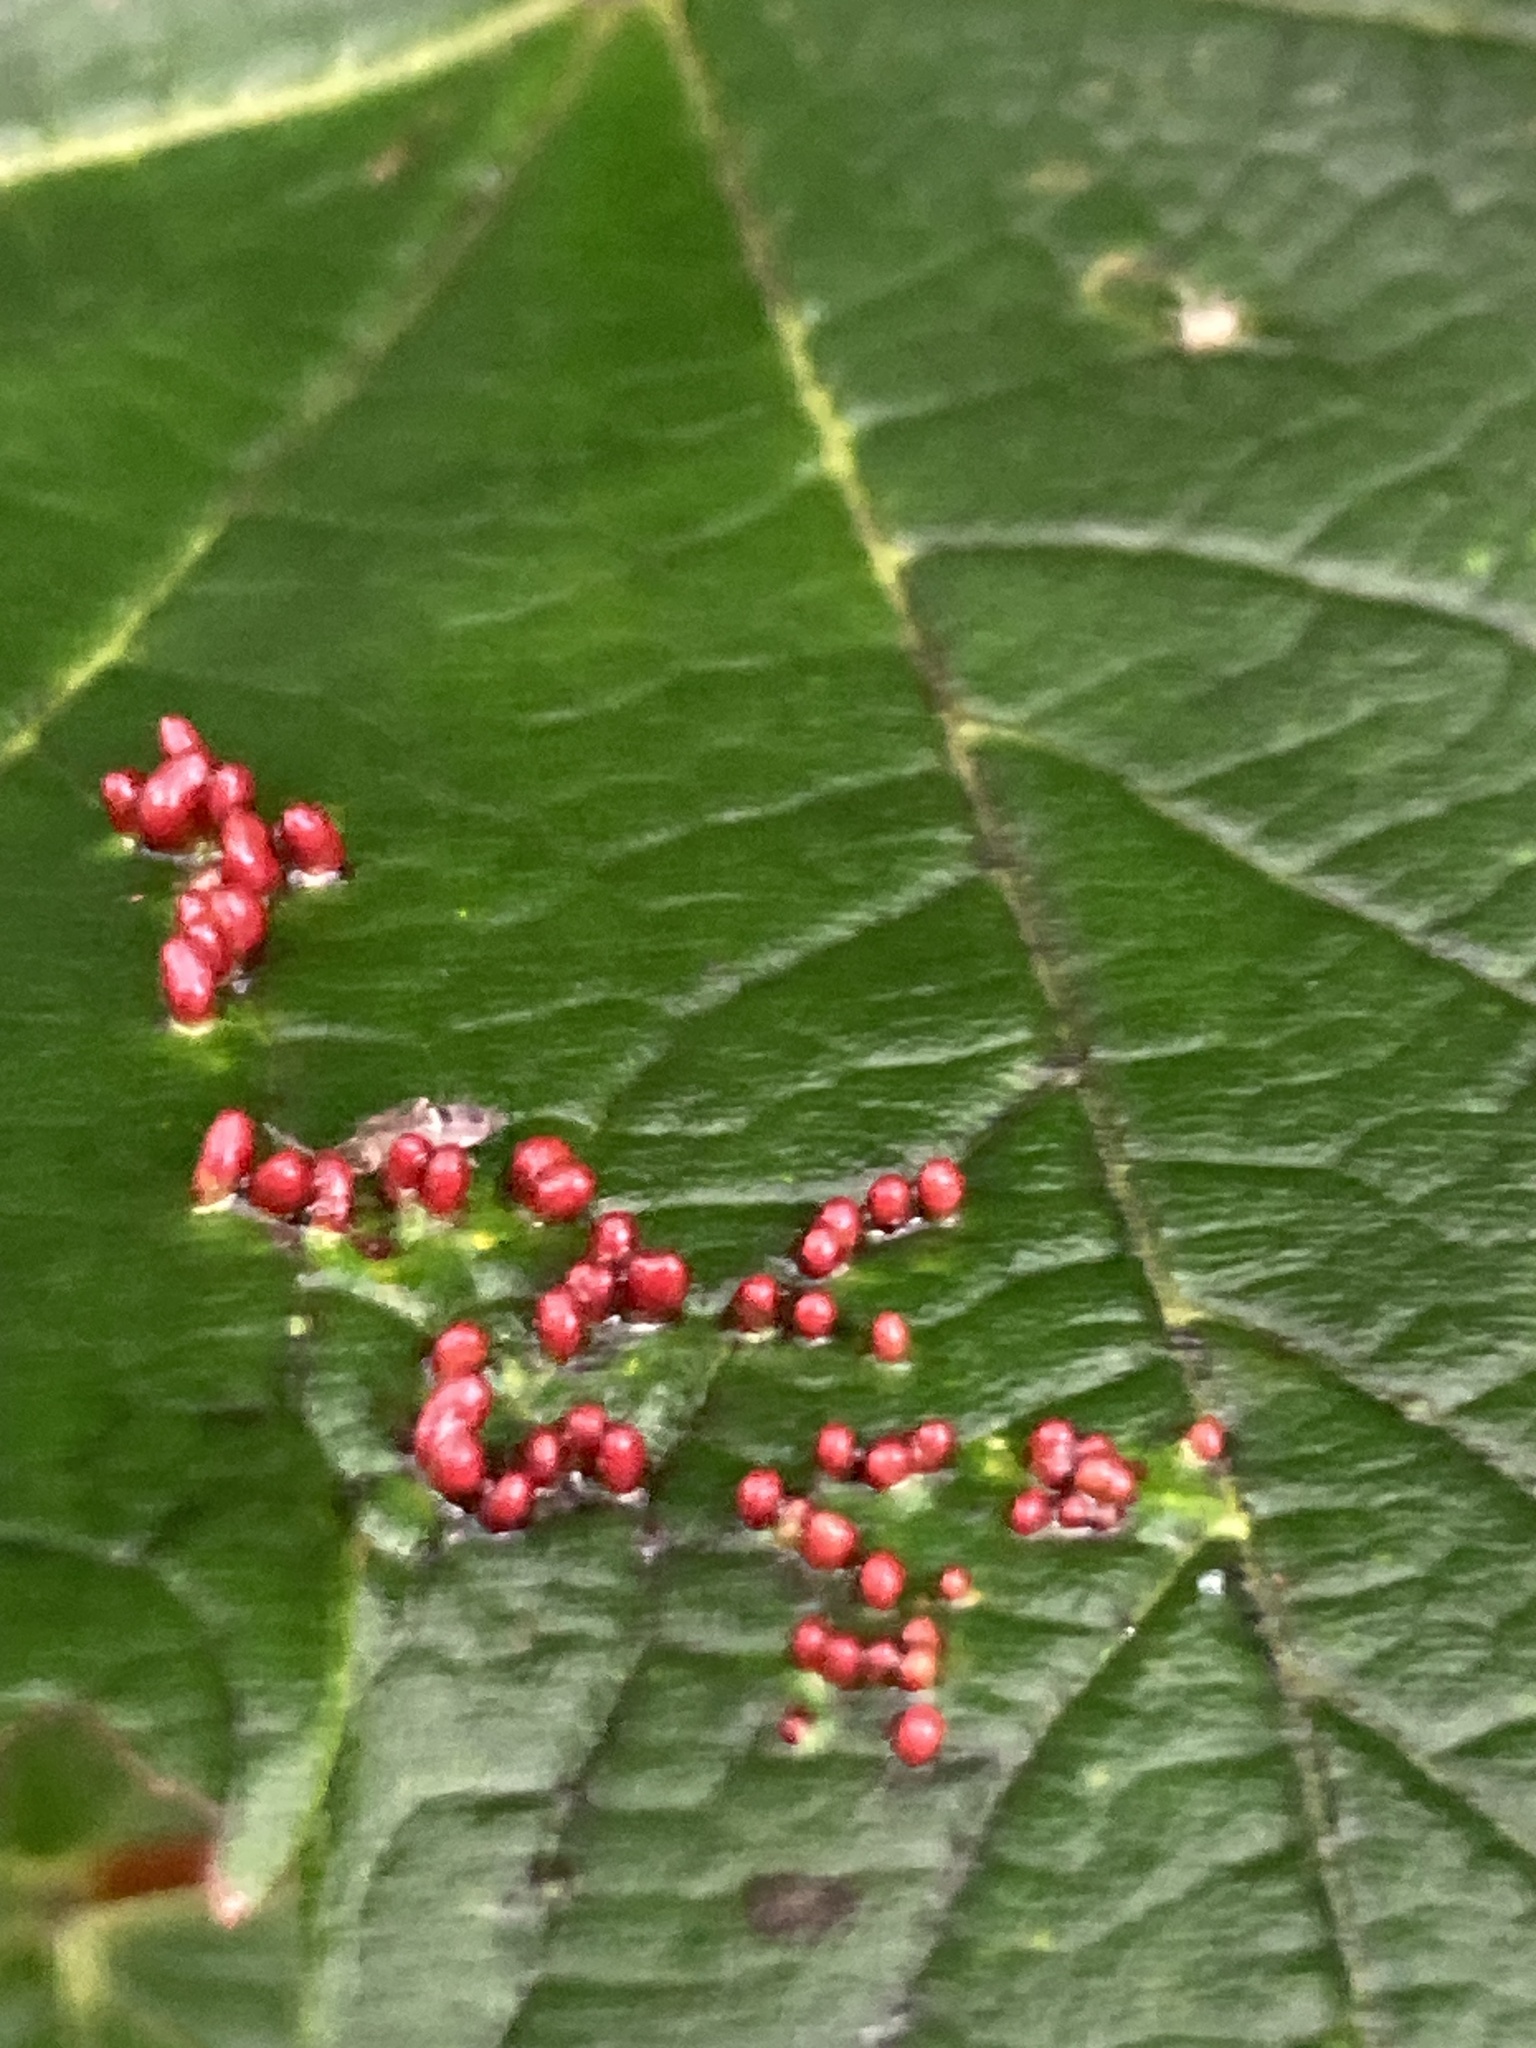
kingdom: Animalia
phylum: Arthropoda
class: Arachnida
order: Trombidiformes
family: Eriophyidae
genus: Aceria
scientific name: Aceria cephaloneus
